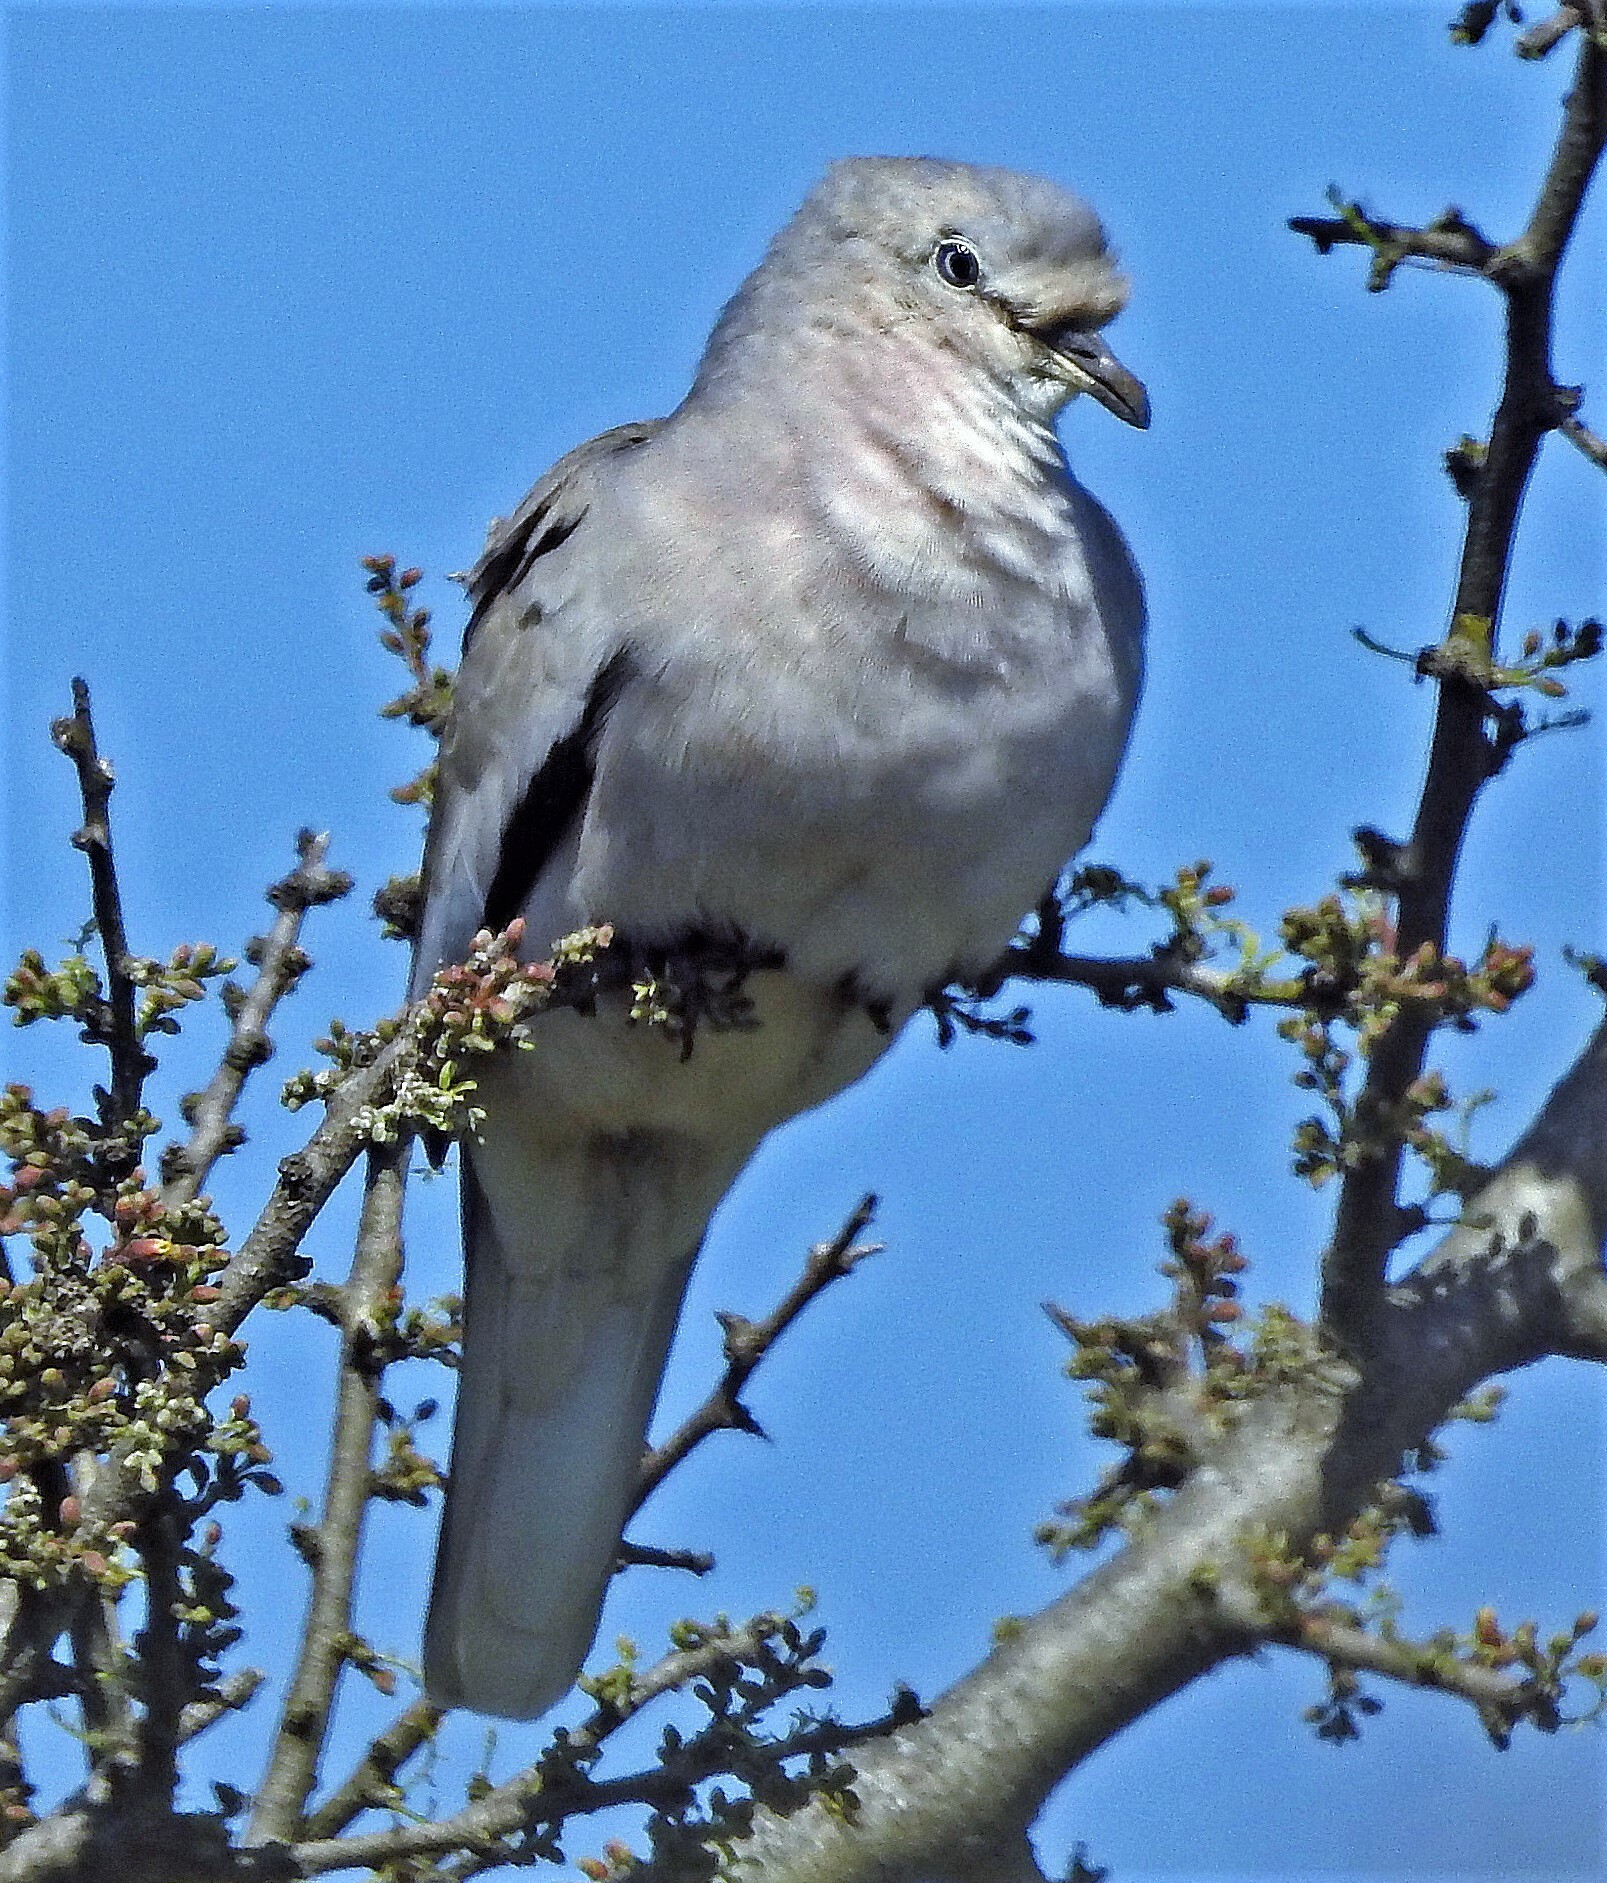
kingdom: Animalia
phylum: Chordata
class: Aves
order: Columbiformes
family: Columbidae
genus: Columbina
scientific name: Columbina picui
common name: Picui ground dove
